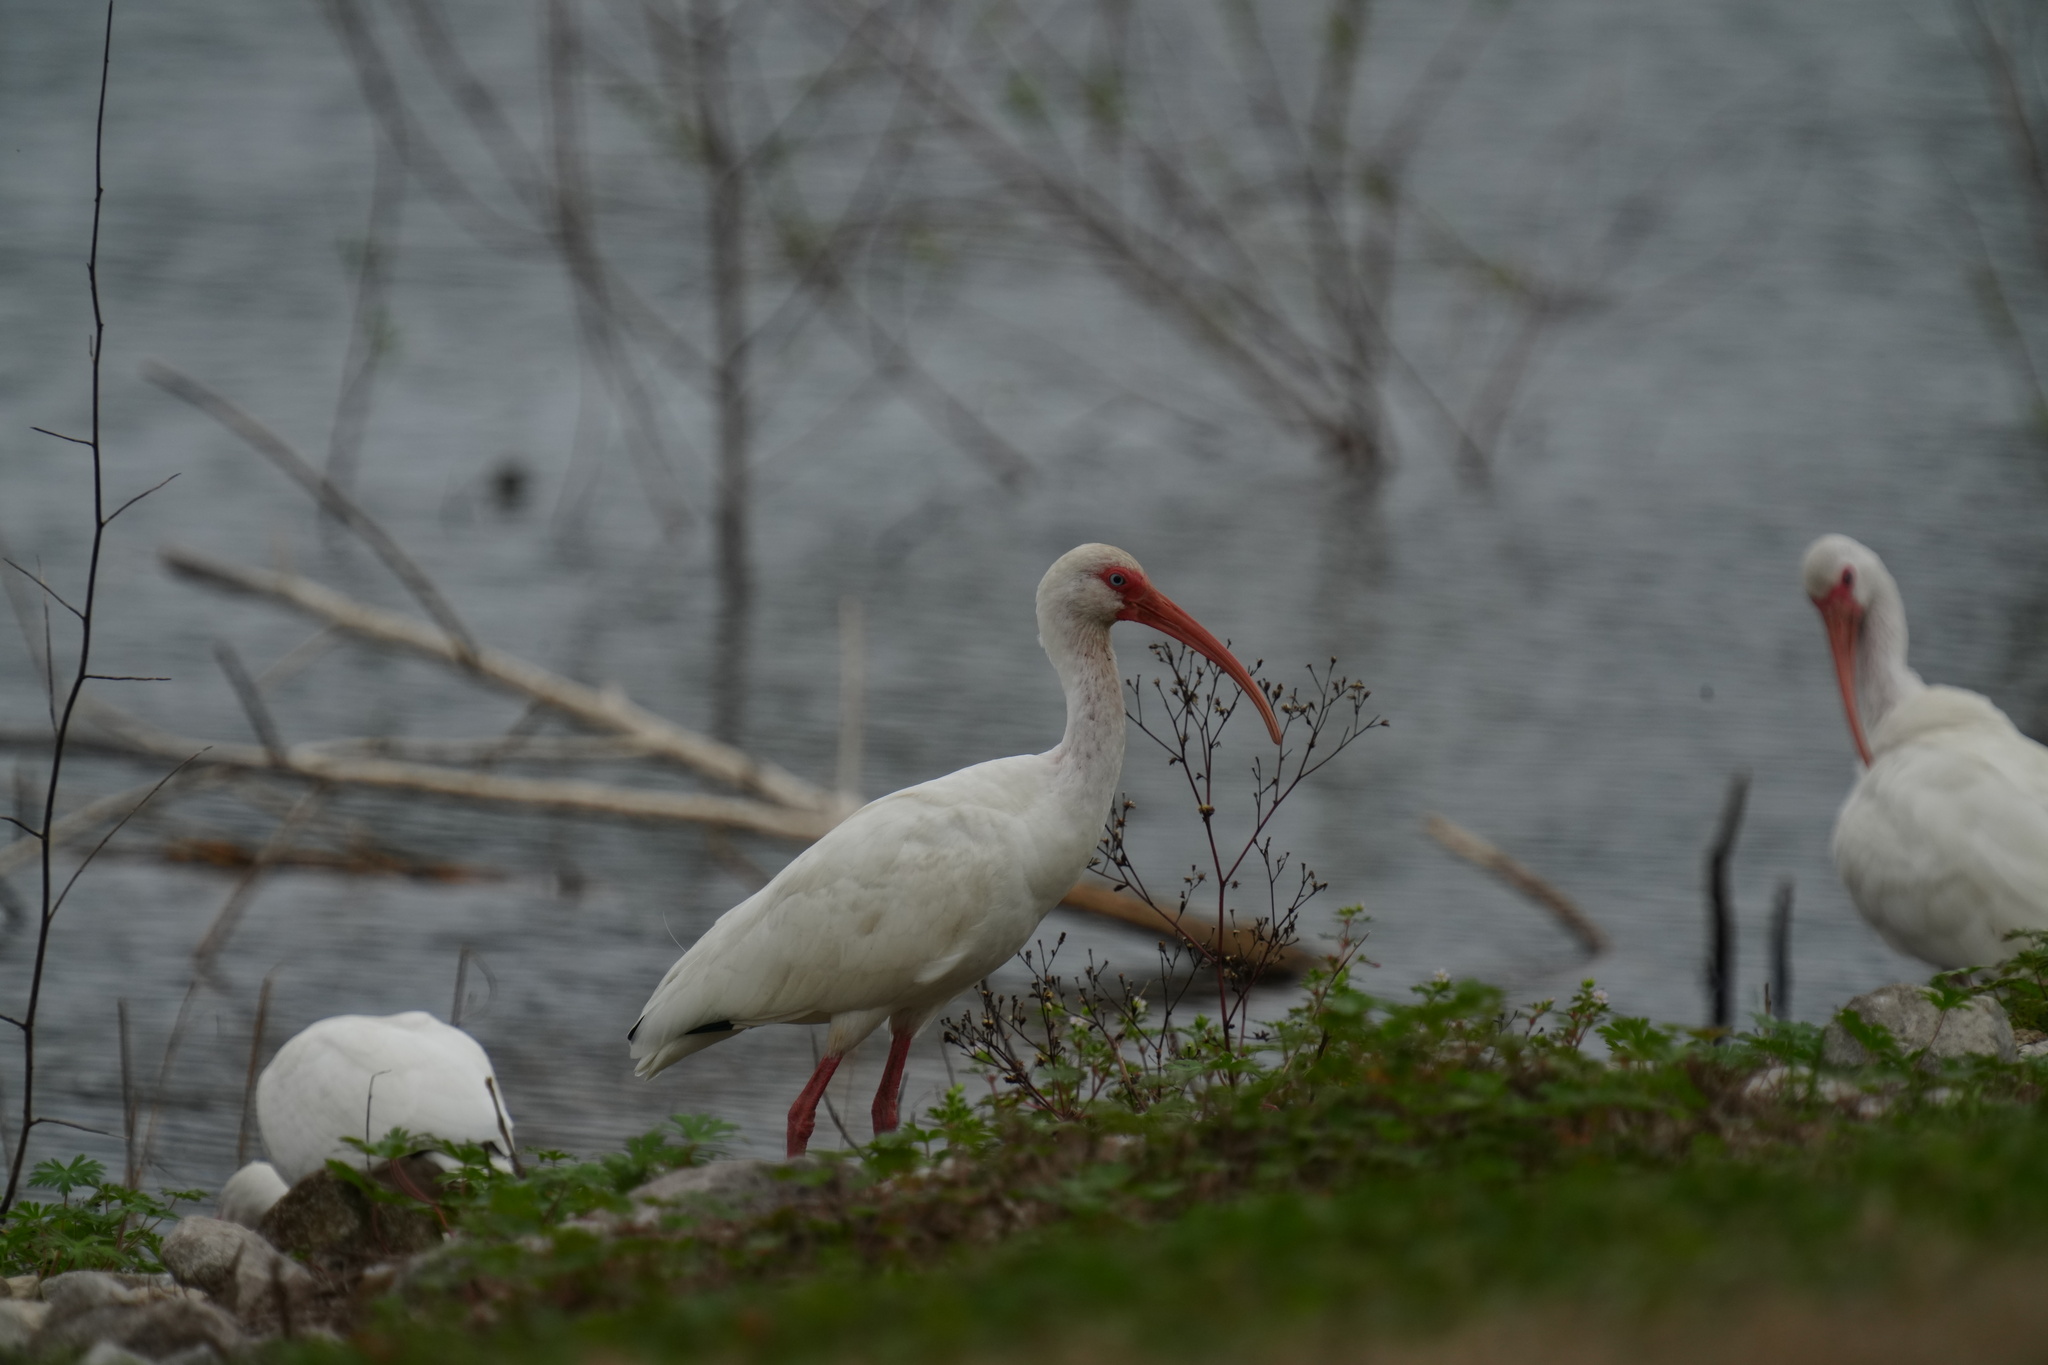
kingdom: Animalia
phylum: Chordata
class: Aves
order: Pelecaniformes
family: Threskiornithidae
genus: Eudocimus
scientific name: Eudocimus albus
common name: White ibis
